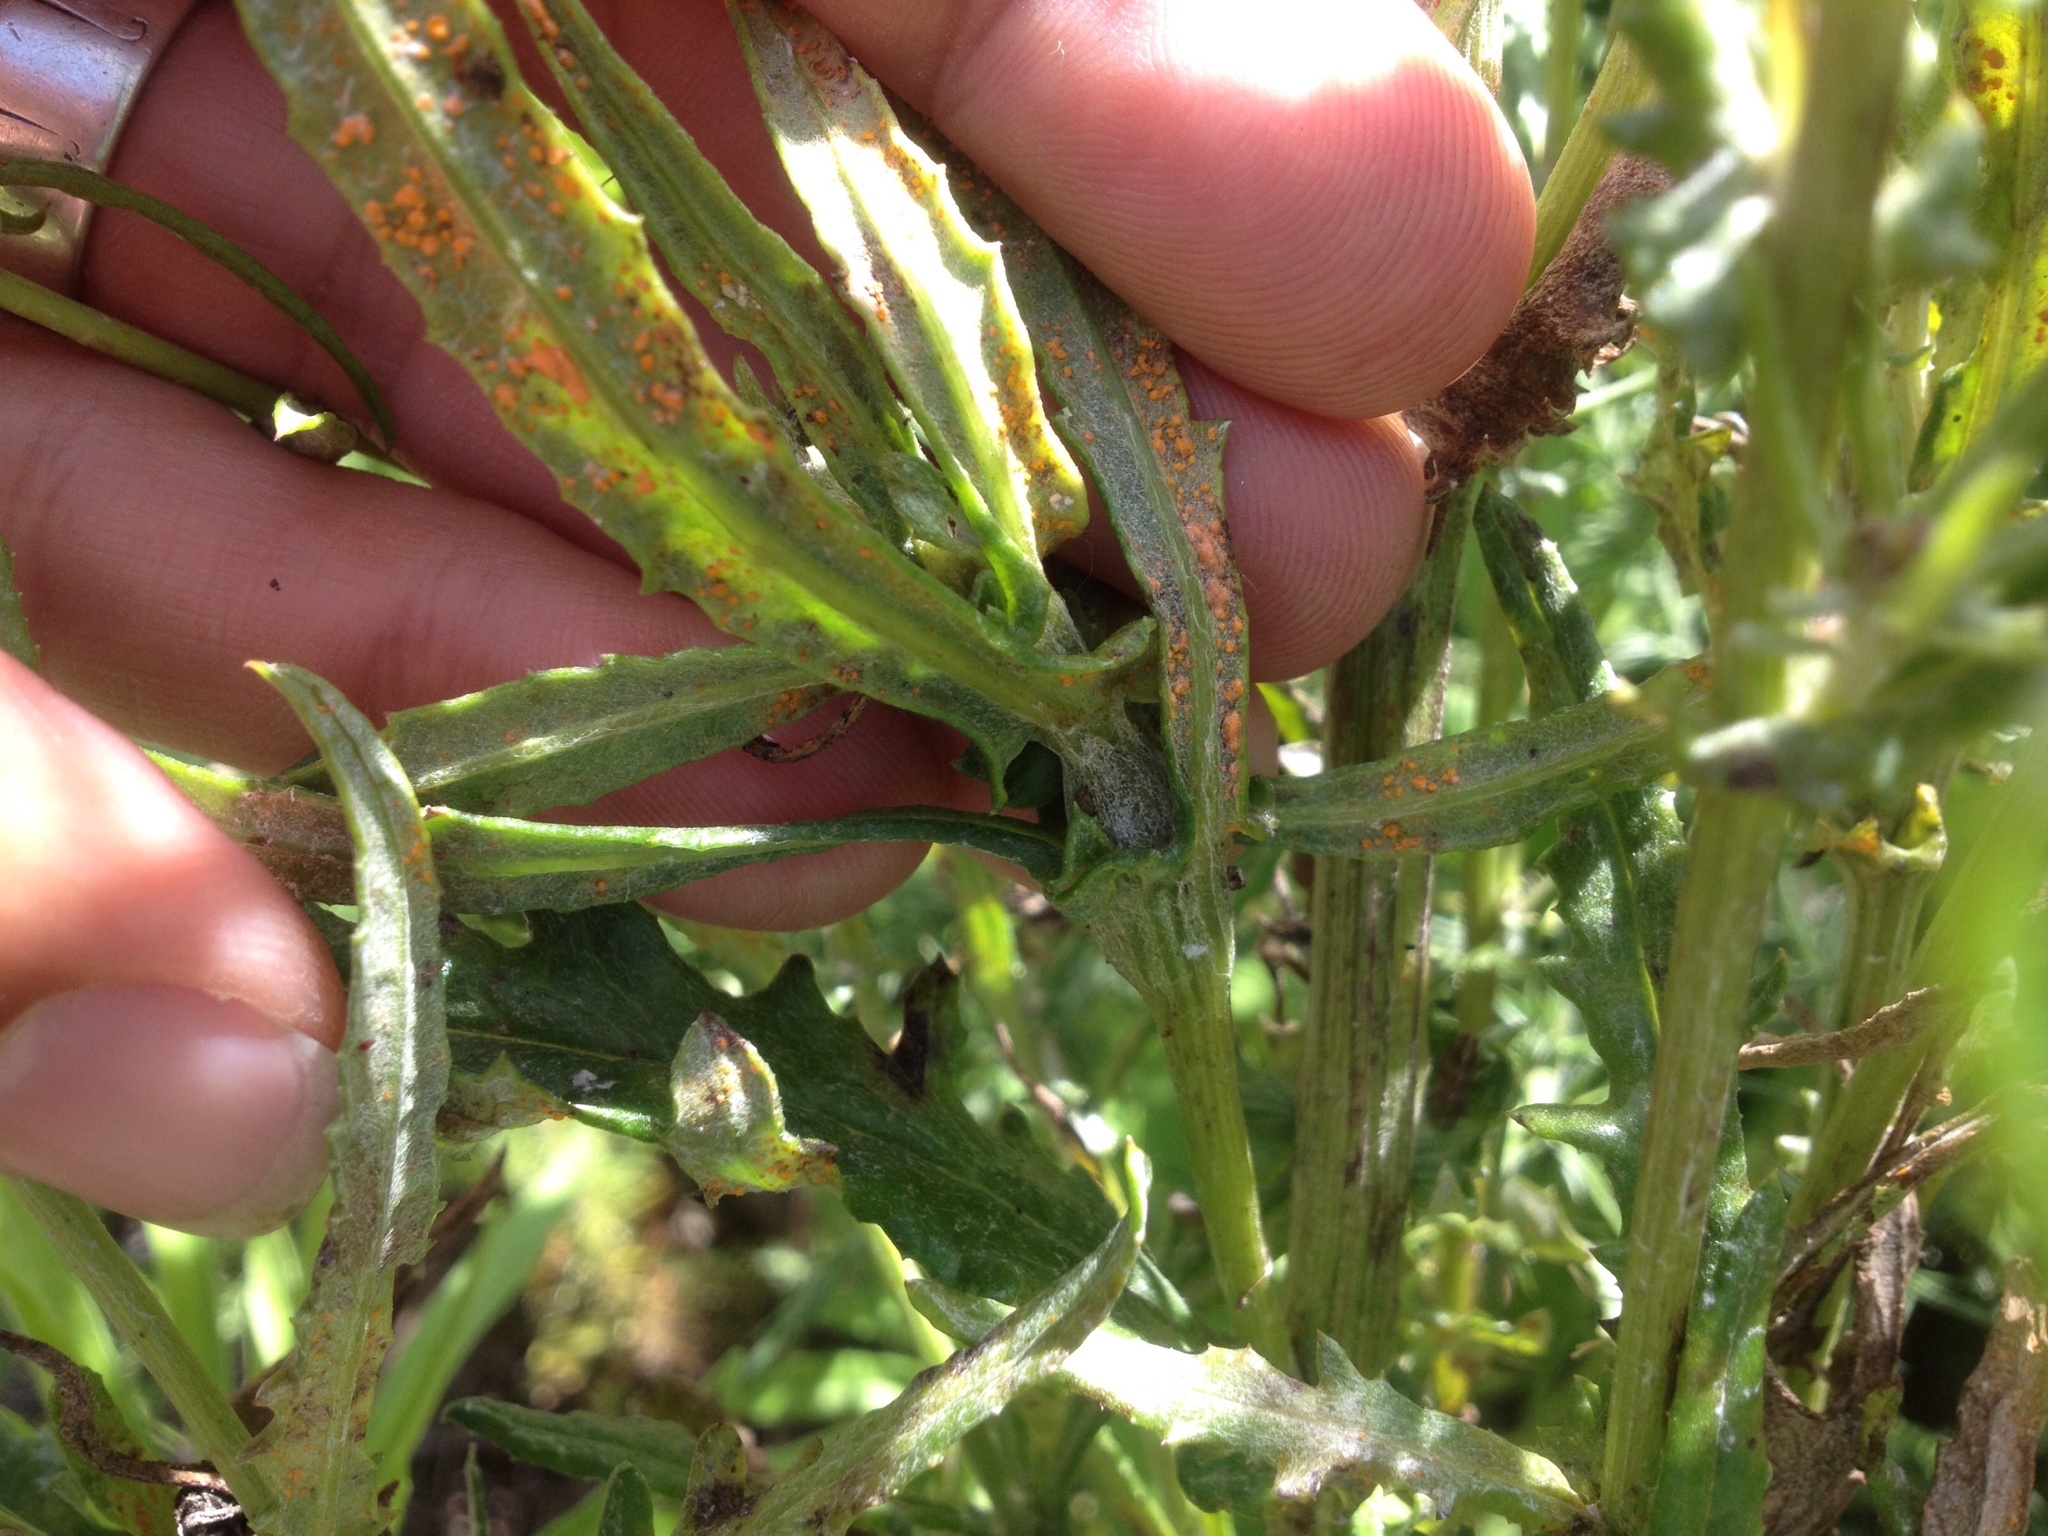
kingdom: Plantae
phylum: Tracheophyta
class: Magnoliopsida
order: Asterales
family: Asteraceae
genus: Senecio
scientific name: Senecio glomeratus
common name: Cutleaf burnweed
